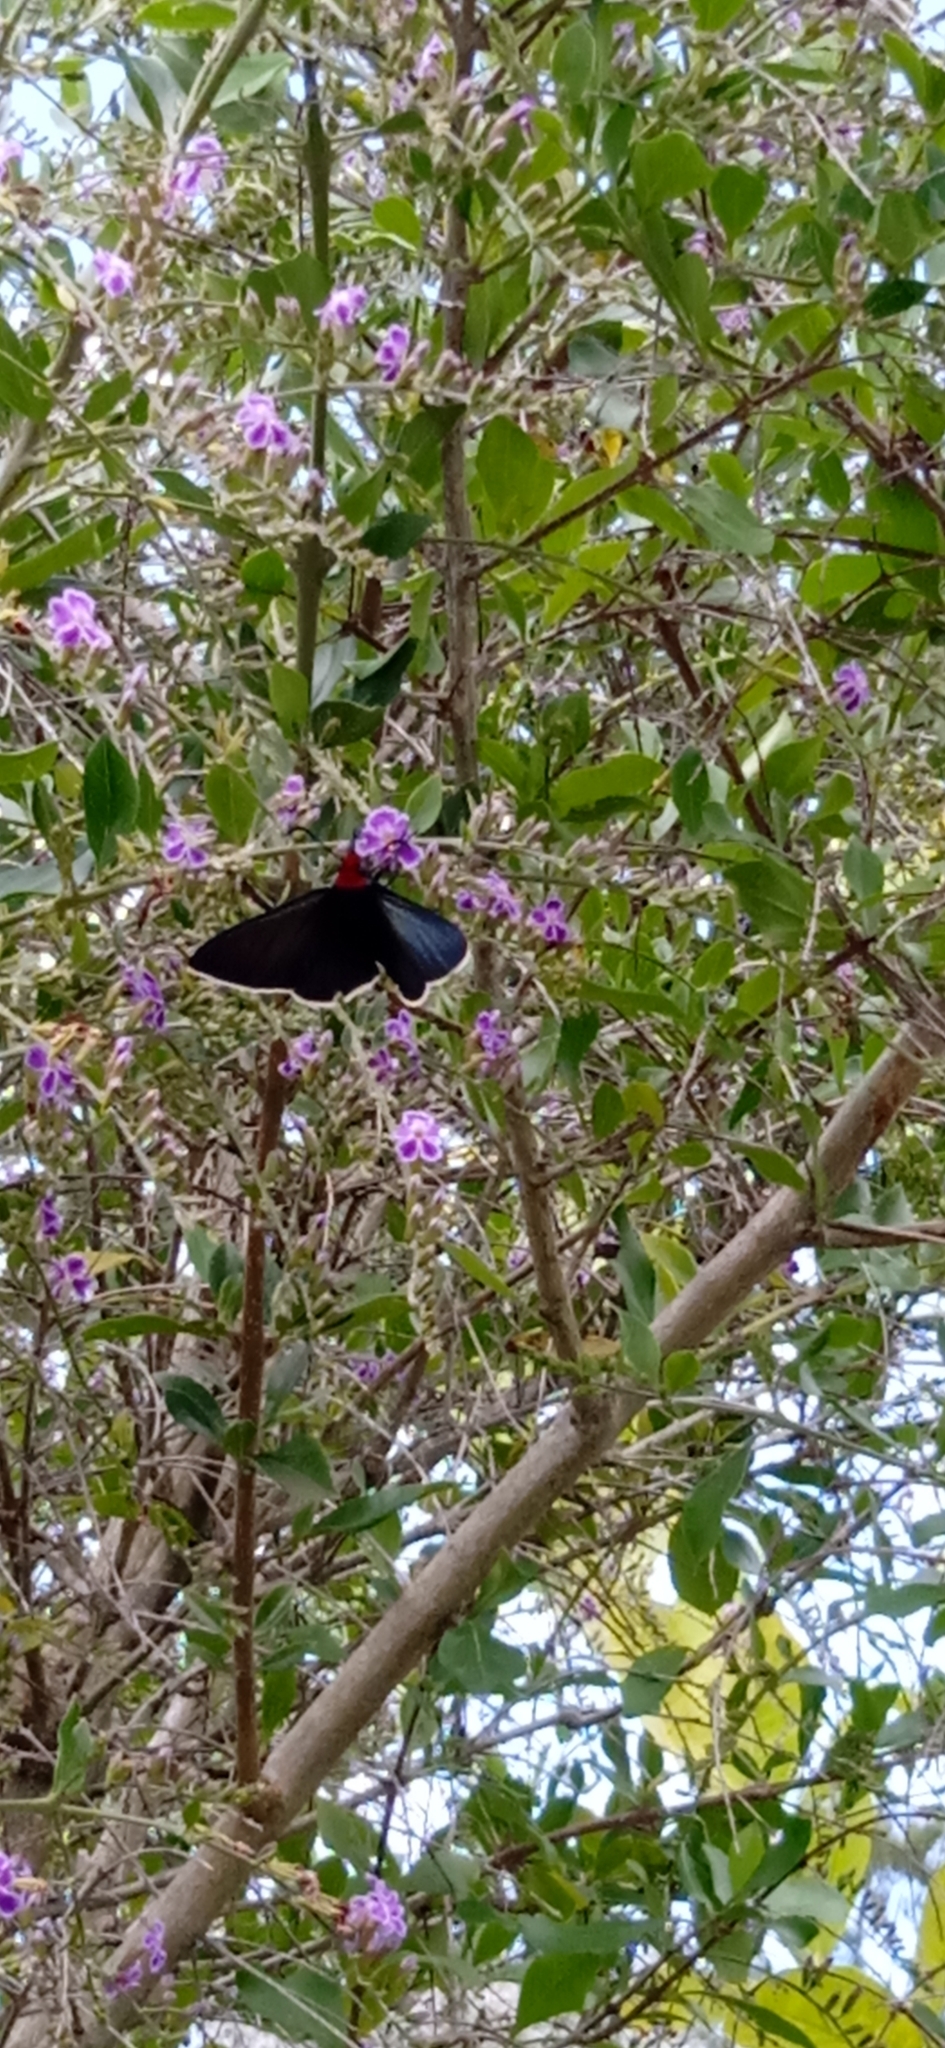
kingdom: Animalia
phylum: Arthropoda
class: Insecta
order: Lepidoptera
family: Hesperiidae
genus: Pyrrhopyge
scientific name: Pyrrhopyge charybdis
